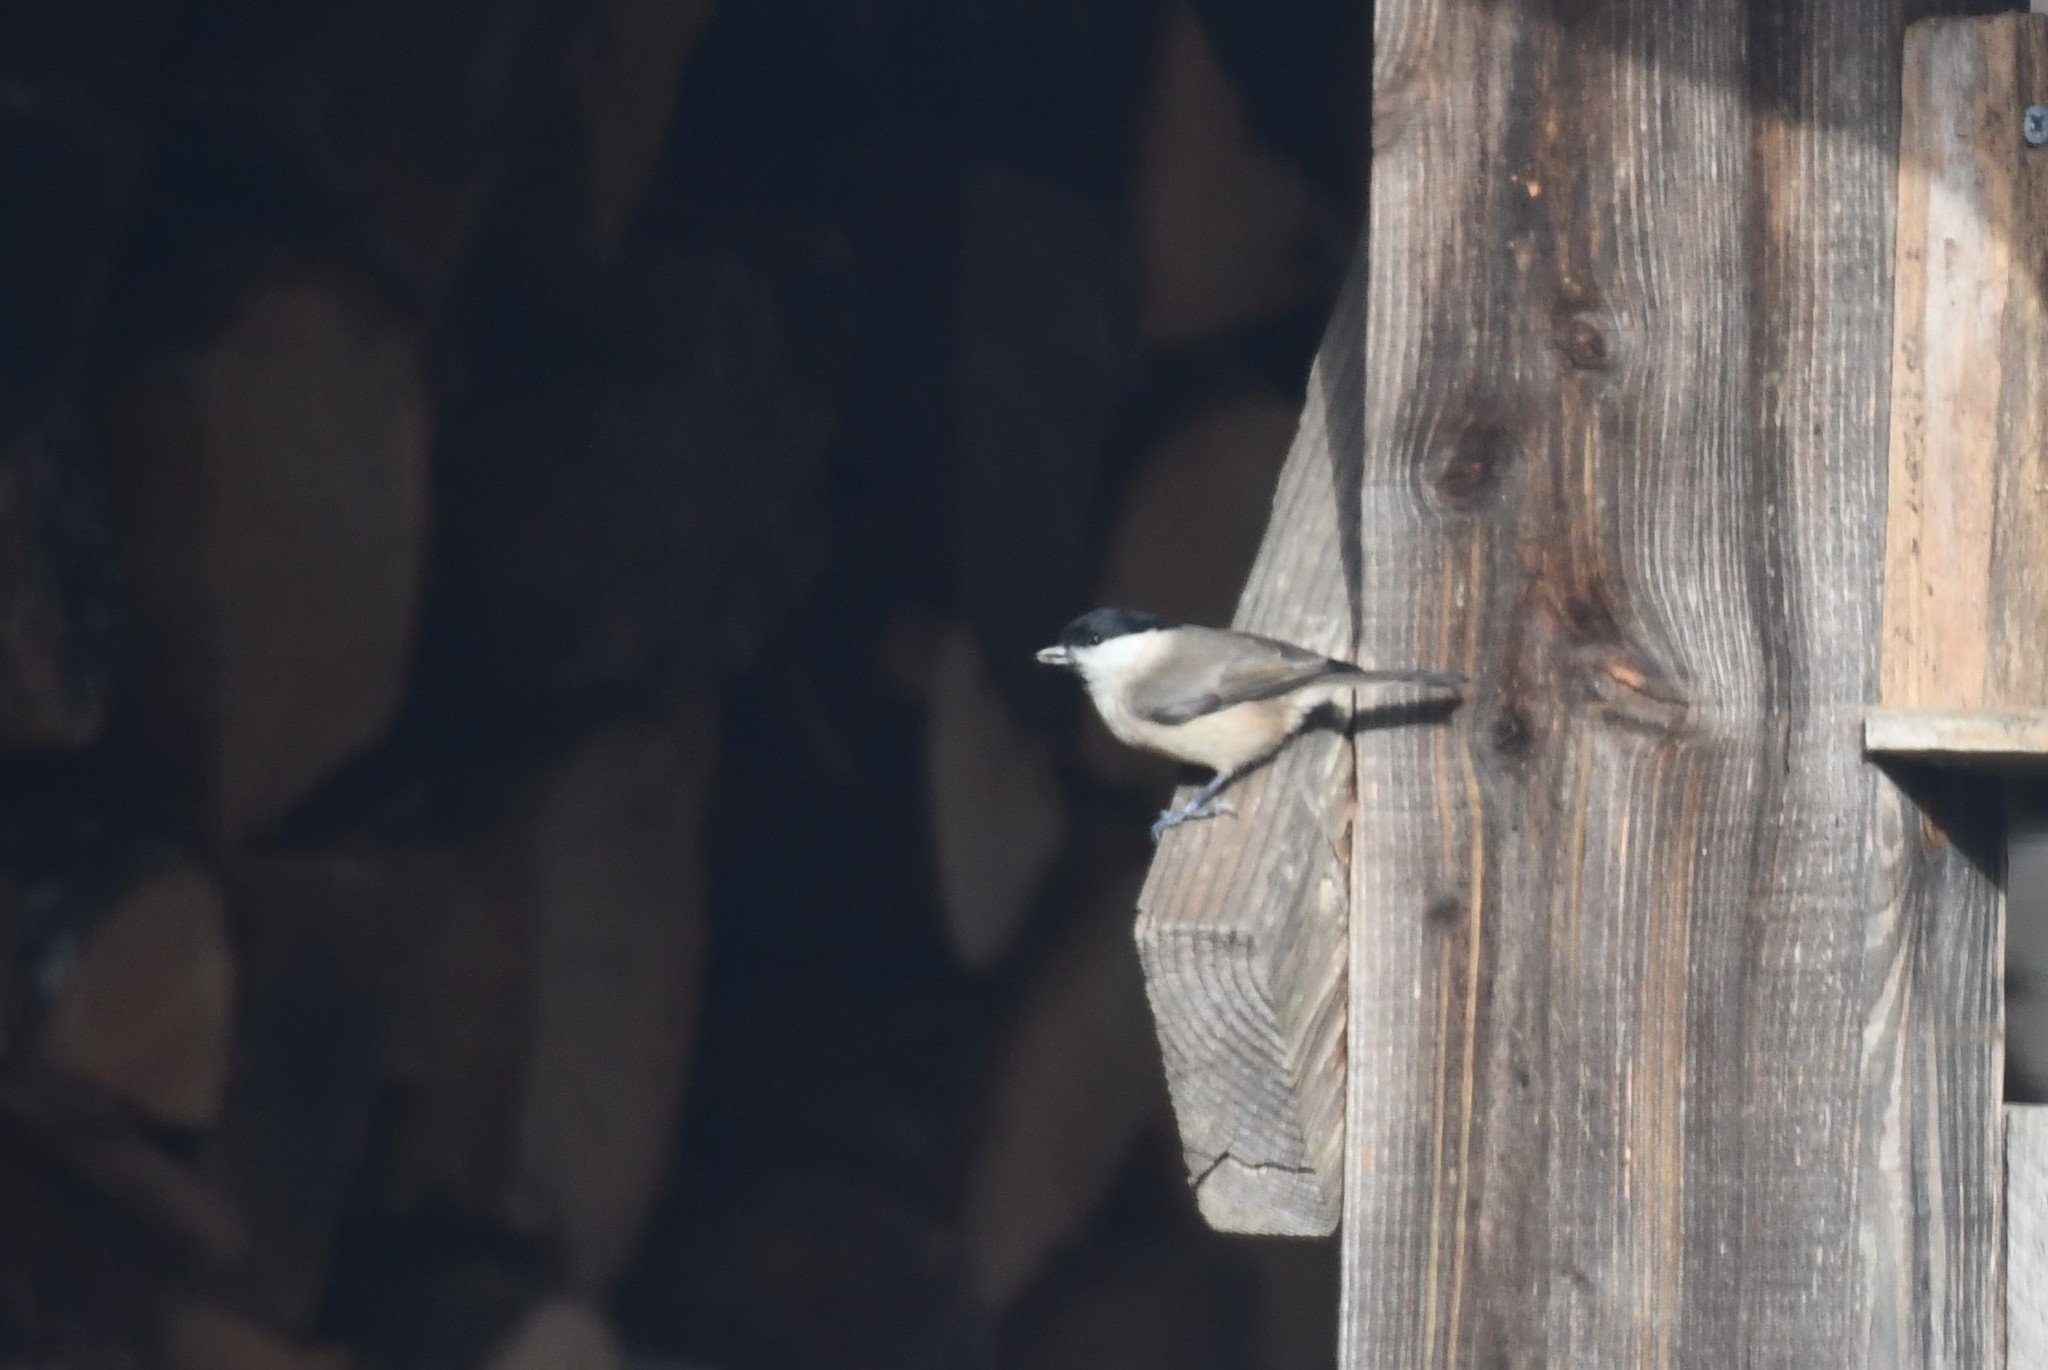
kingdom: Animalia
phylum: Chordata
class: Aves
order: Passeriformes
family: Paridae
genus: Poecile
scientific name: Poecile palustris
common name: Marsh tit
